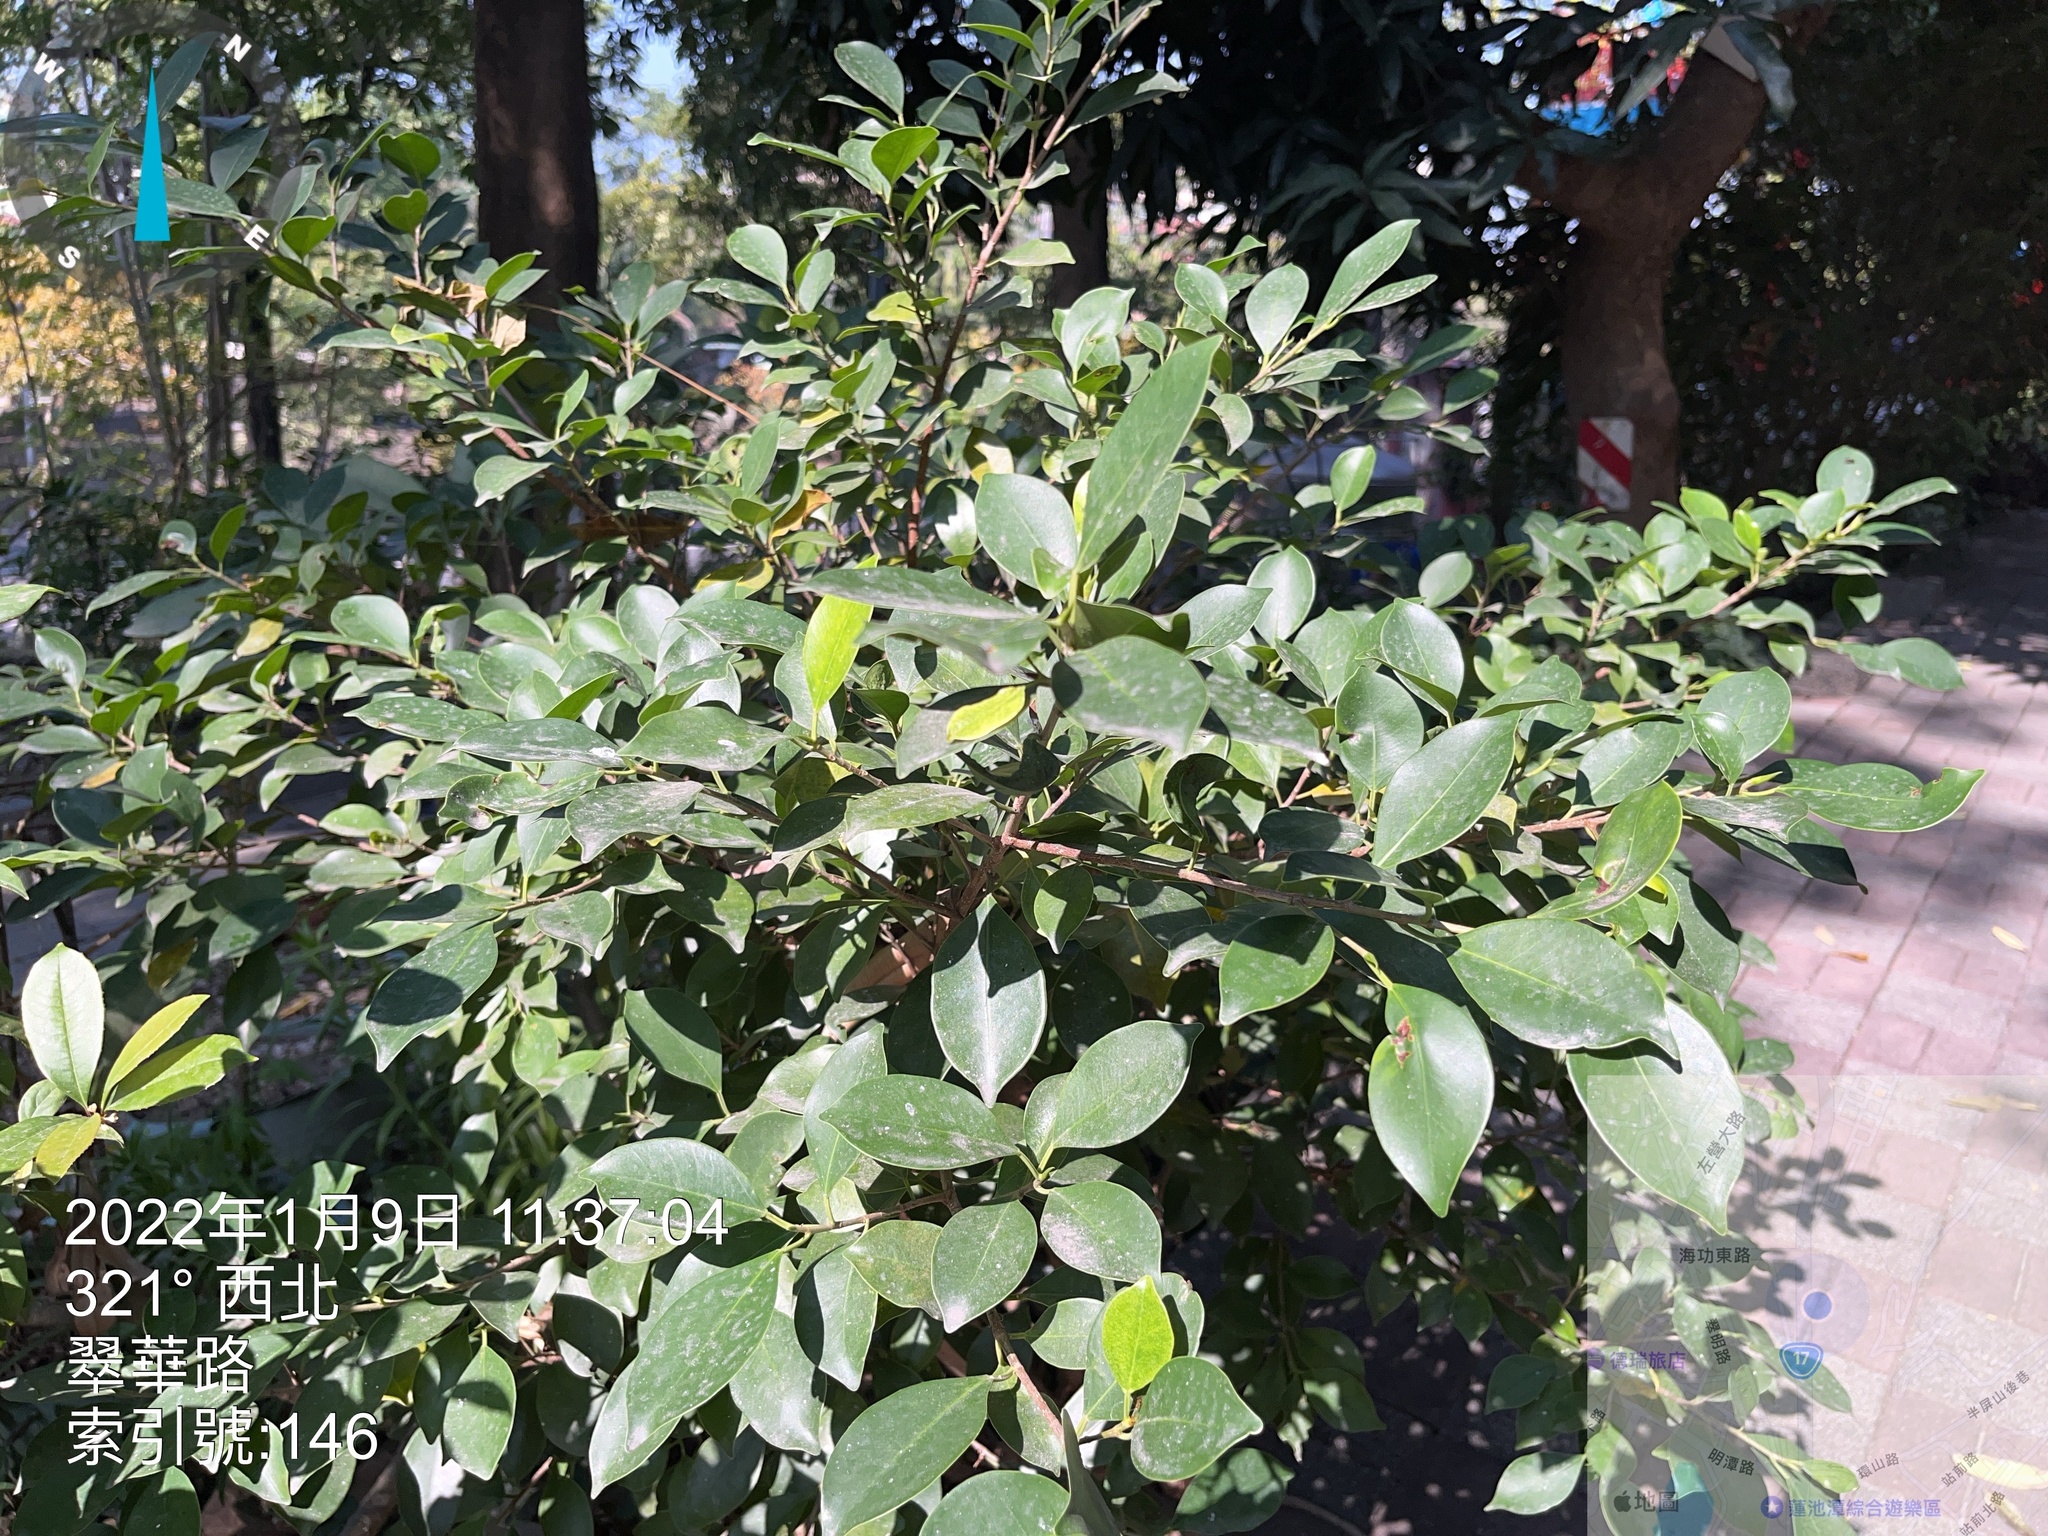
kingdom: Plantae
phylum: Tracheophyta
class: Magnoliopsida
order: Rosales
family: Moraceae
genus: Ficus
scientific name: Ficus microcarpa
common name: Chinese banyan
